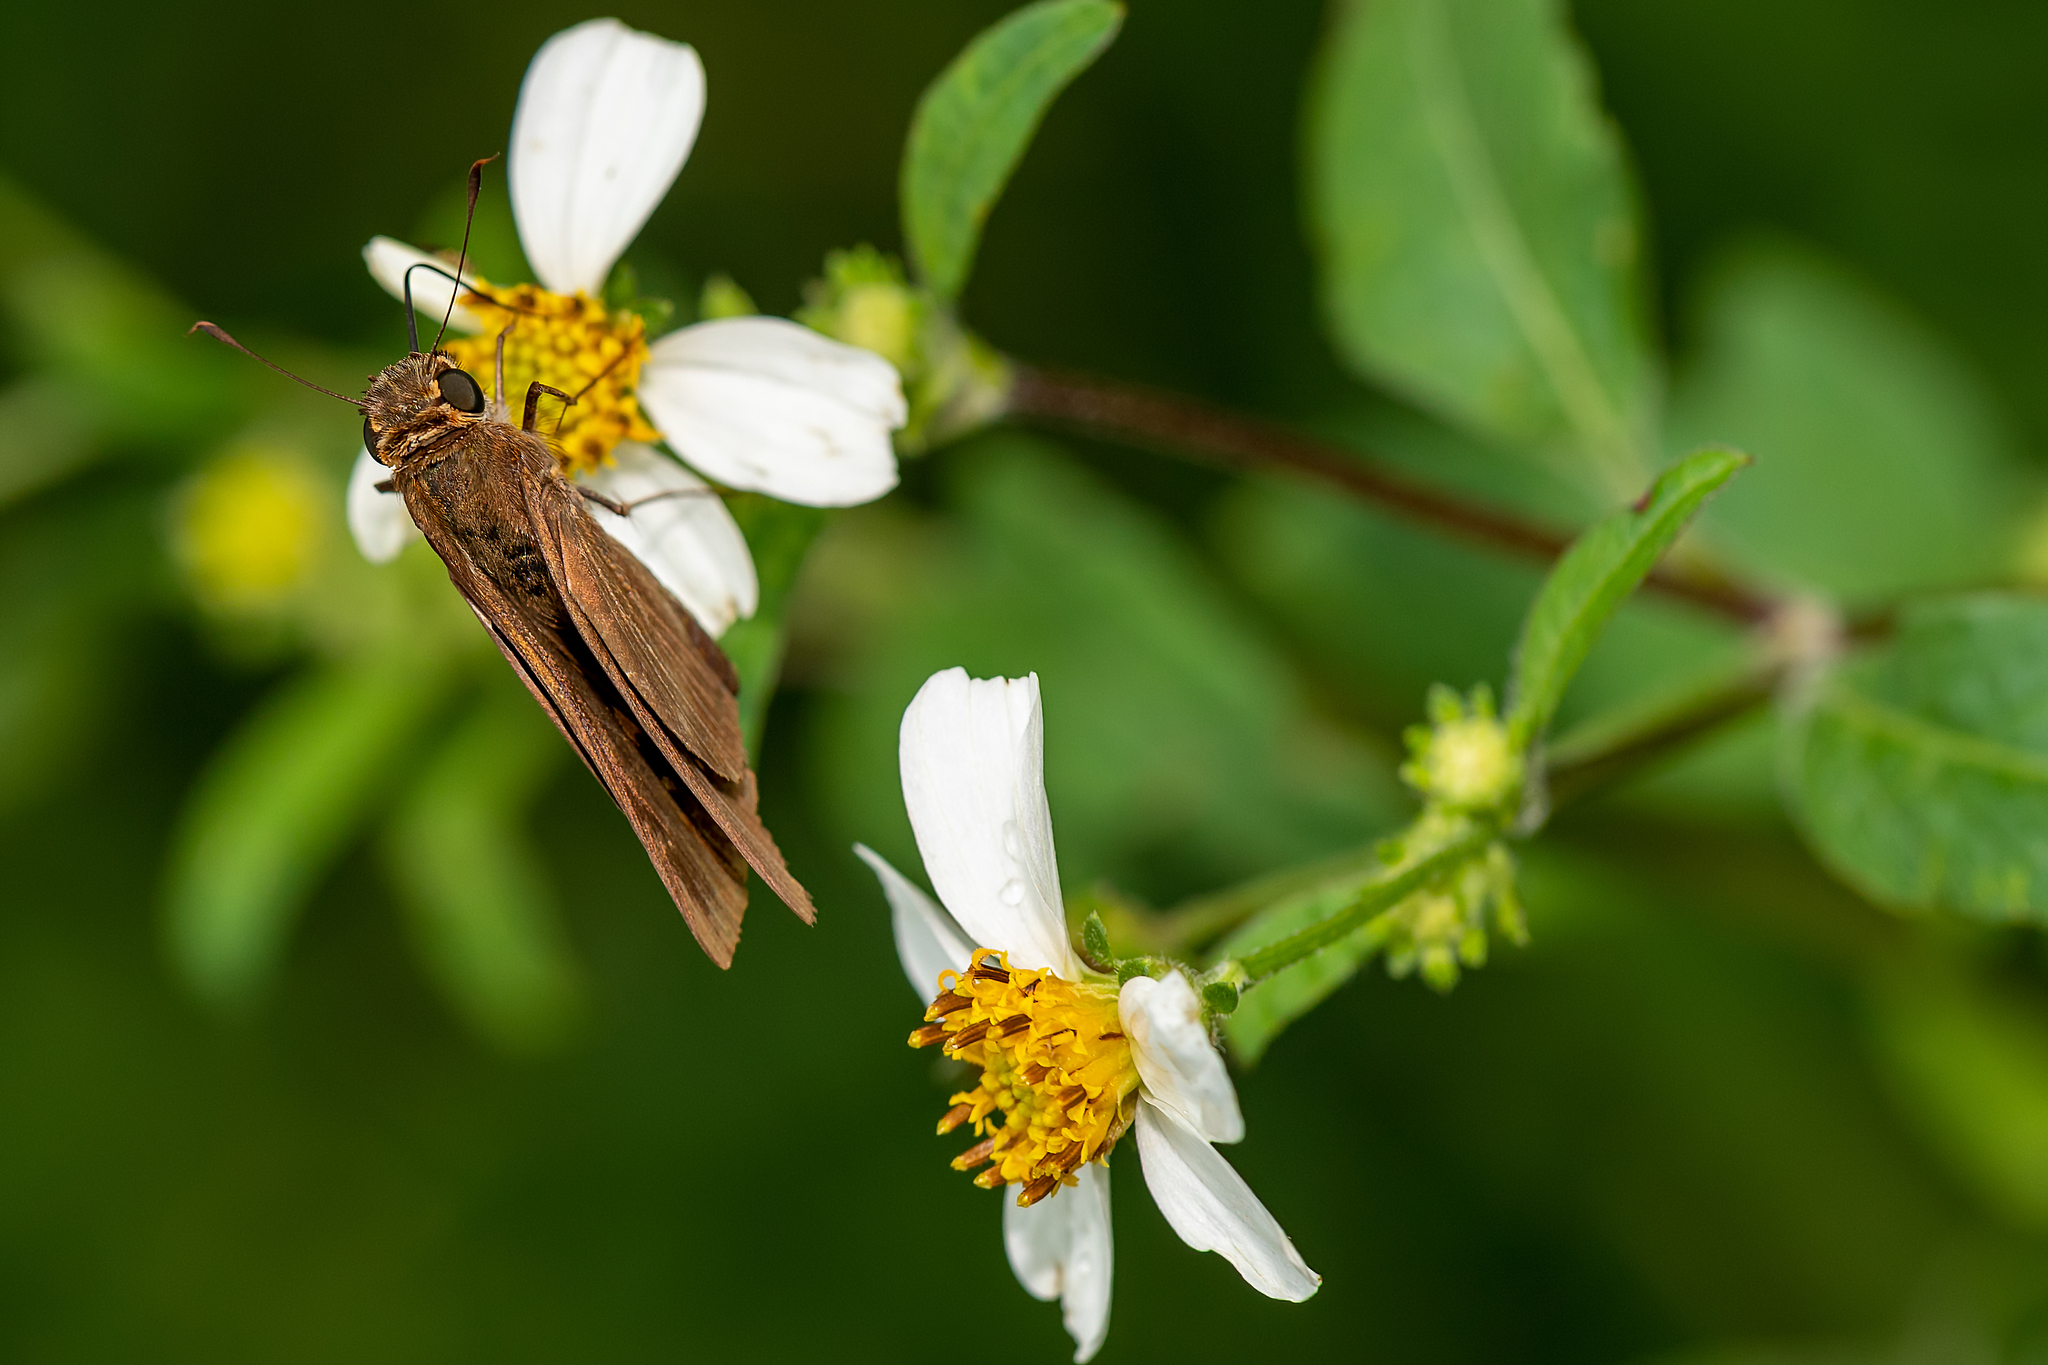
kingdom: Animalia
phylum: Arthropoda
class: Insecta
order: Lepidoptera
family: Hesperiidae
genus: Panoquina
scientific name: Panoquina ocola
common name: Ocola skipper
